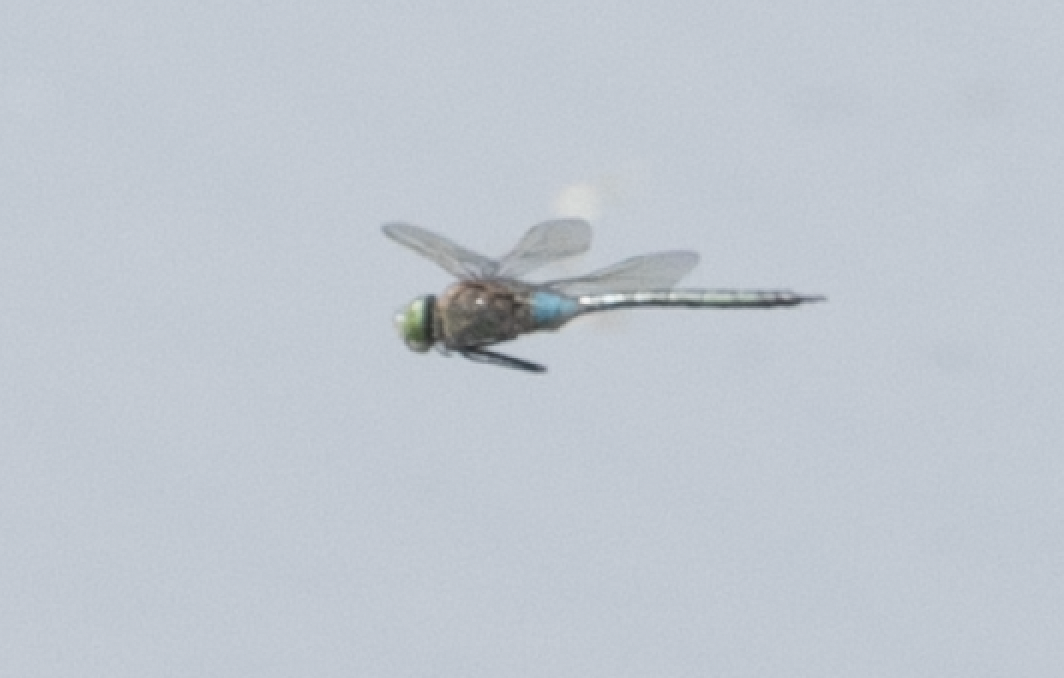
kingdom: Animalia
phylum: Arthropoda
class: Insecta
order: Odonata
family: Aeshnidae
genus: Anax
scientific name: Anax parthenope
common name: Lesser emperor
